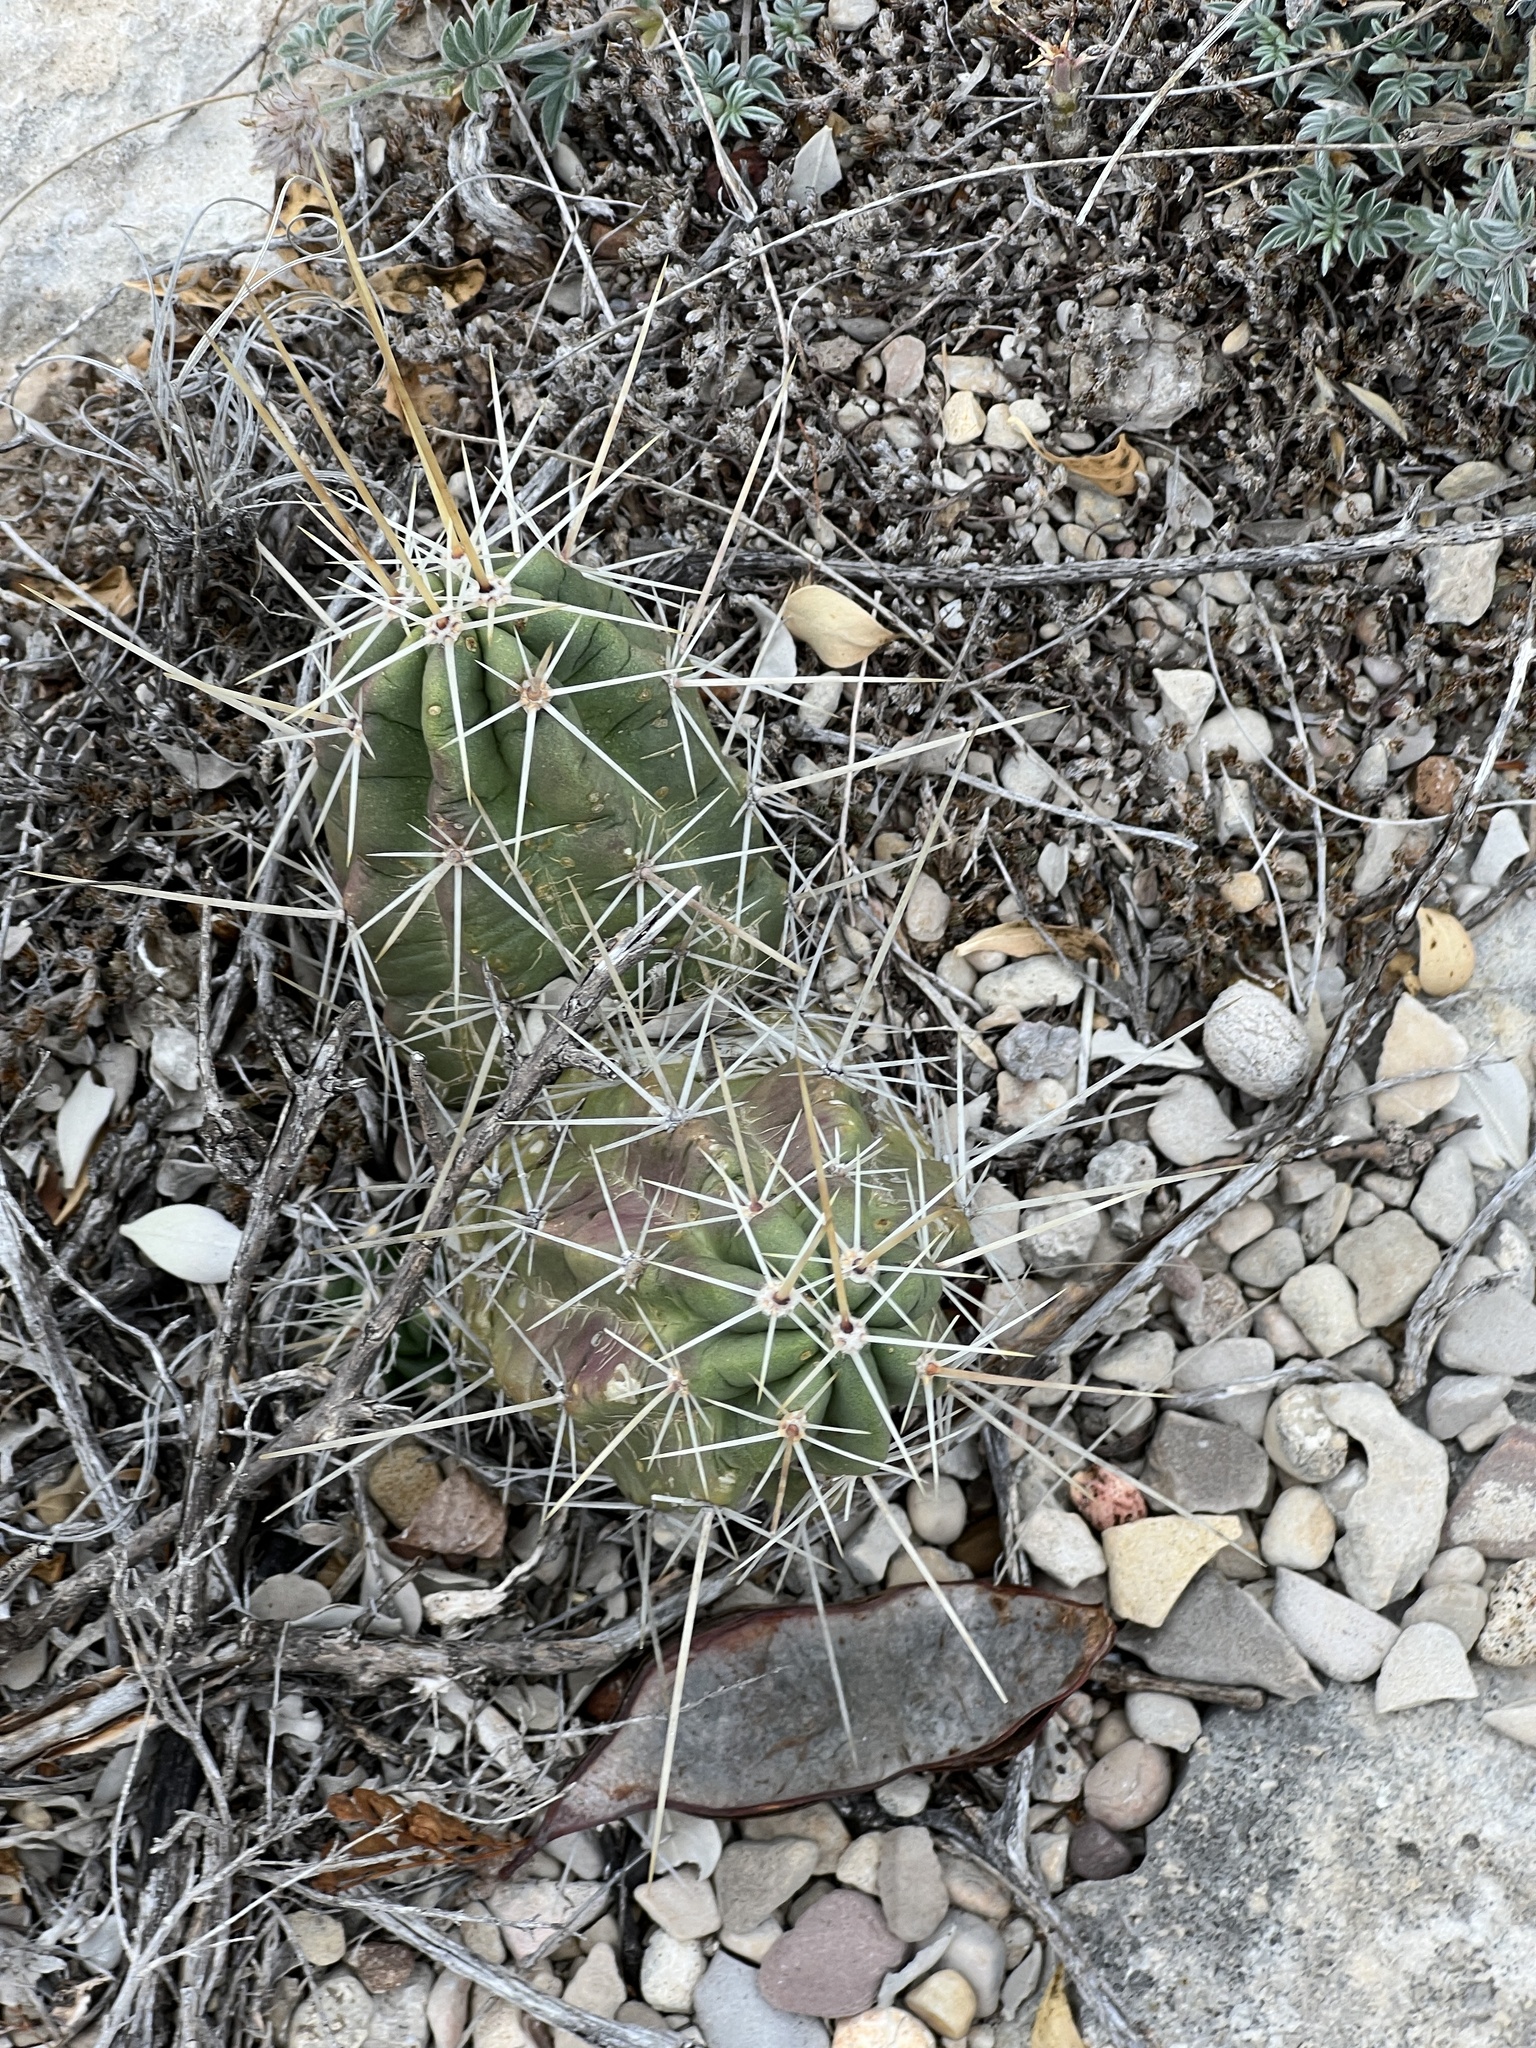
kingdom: Plantae
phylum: Tracheophyta
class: Magnoliopsida
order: Caryophyllales
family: Cactaceae
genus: Echinocereus
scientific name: Echinocereus enneacanthus
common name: Pitaya
